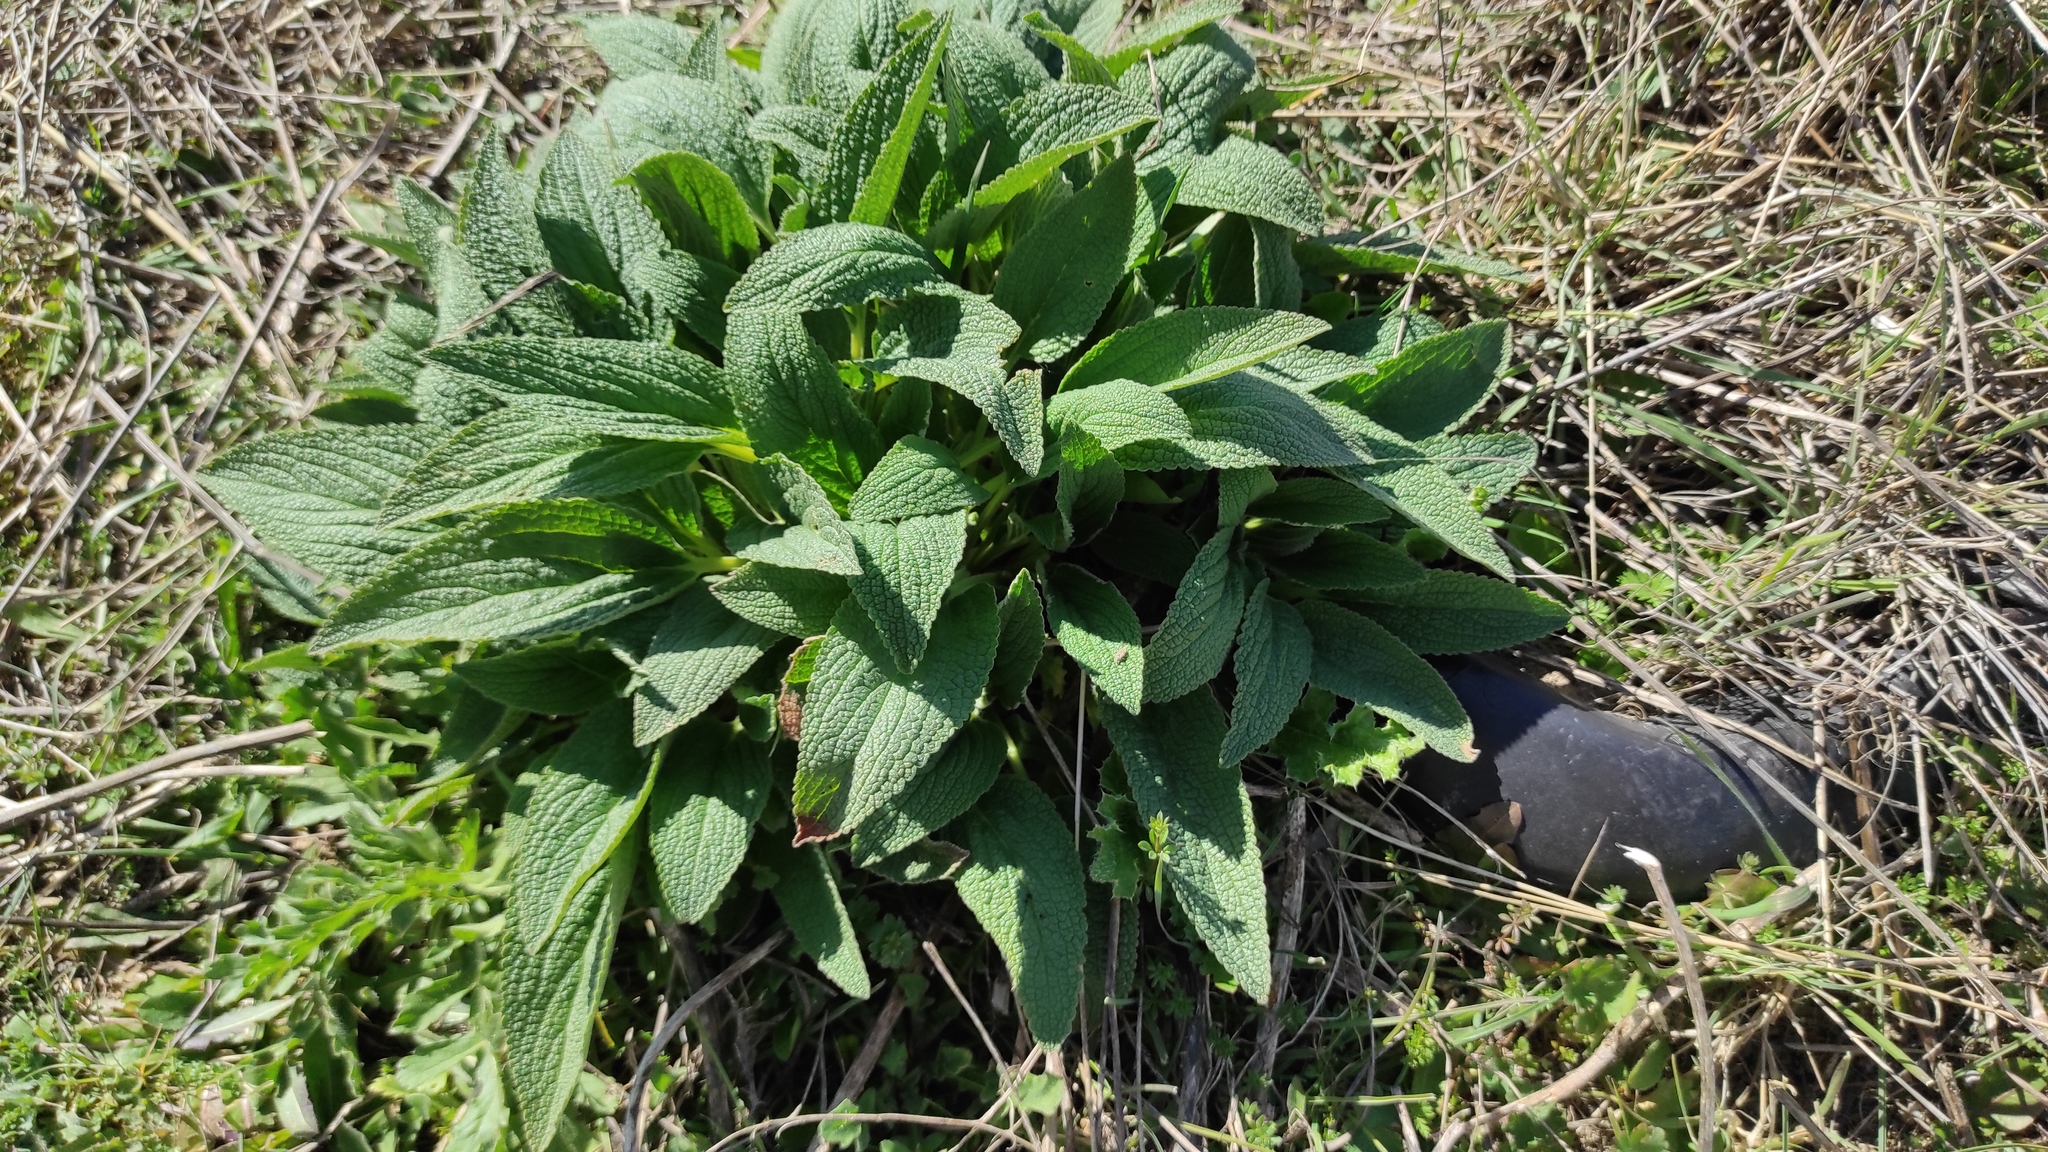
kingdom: Plantae
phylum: Tracheophyta
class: Magnoliopsida
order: Lamiales
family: Lamiaceae
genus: Phlomis
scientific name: Phlomis herba-venti
